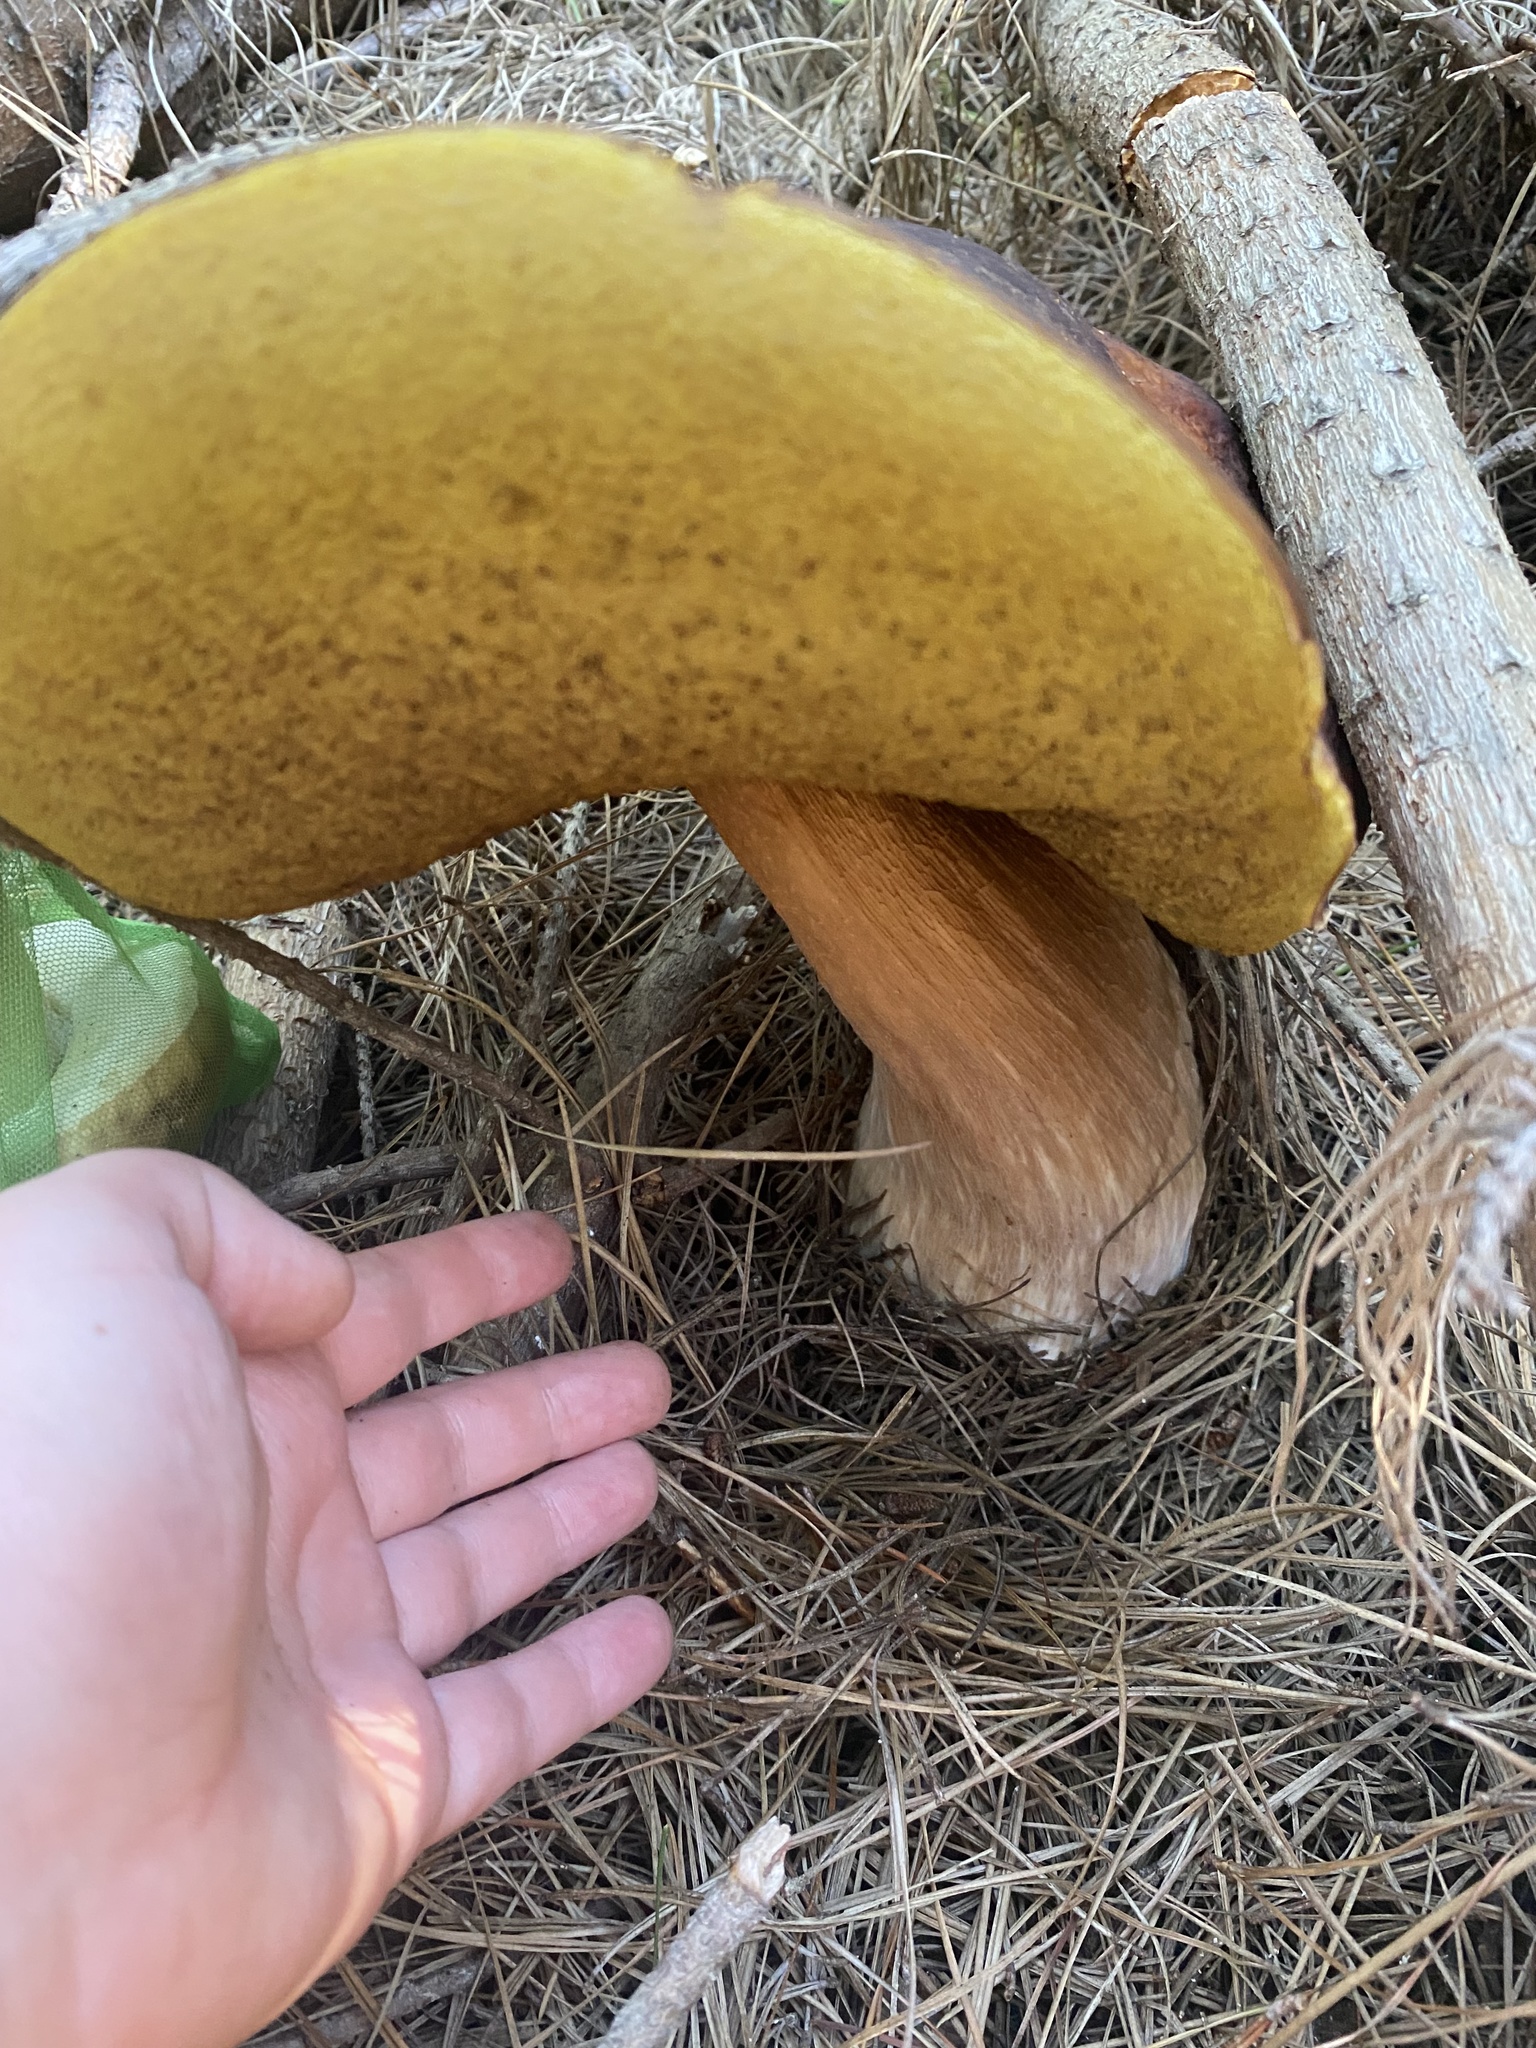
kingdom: Fungi
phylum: Basidiomycota
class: Agaricomycetes
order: Boletales
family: Boletaceae
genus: Boletus
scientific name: Boletus edulis
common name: Cep
